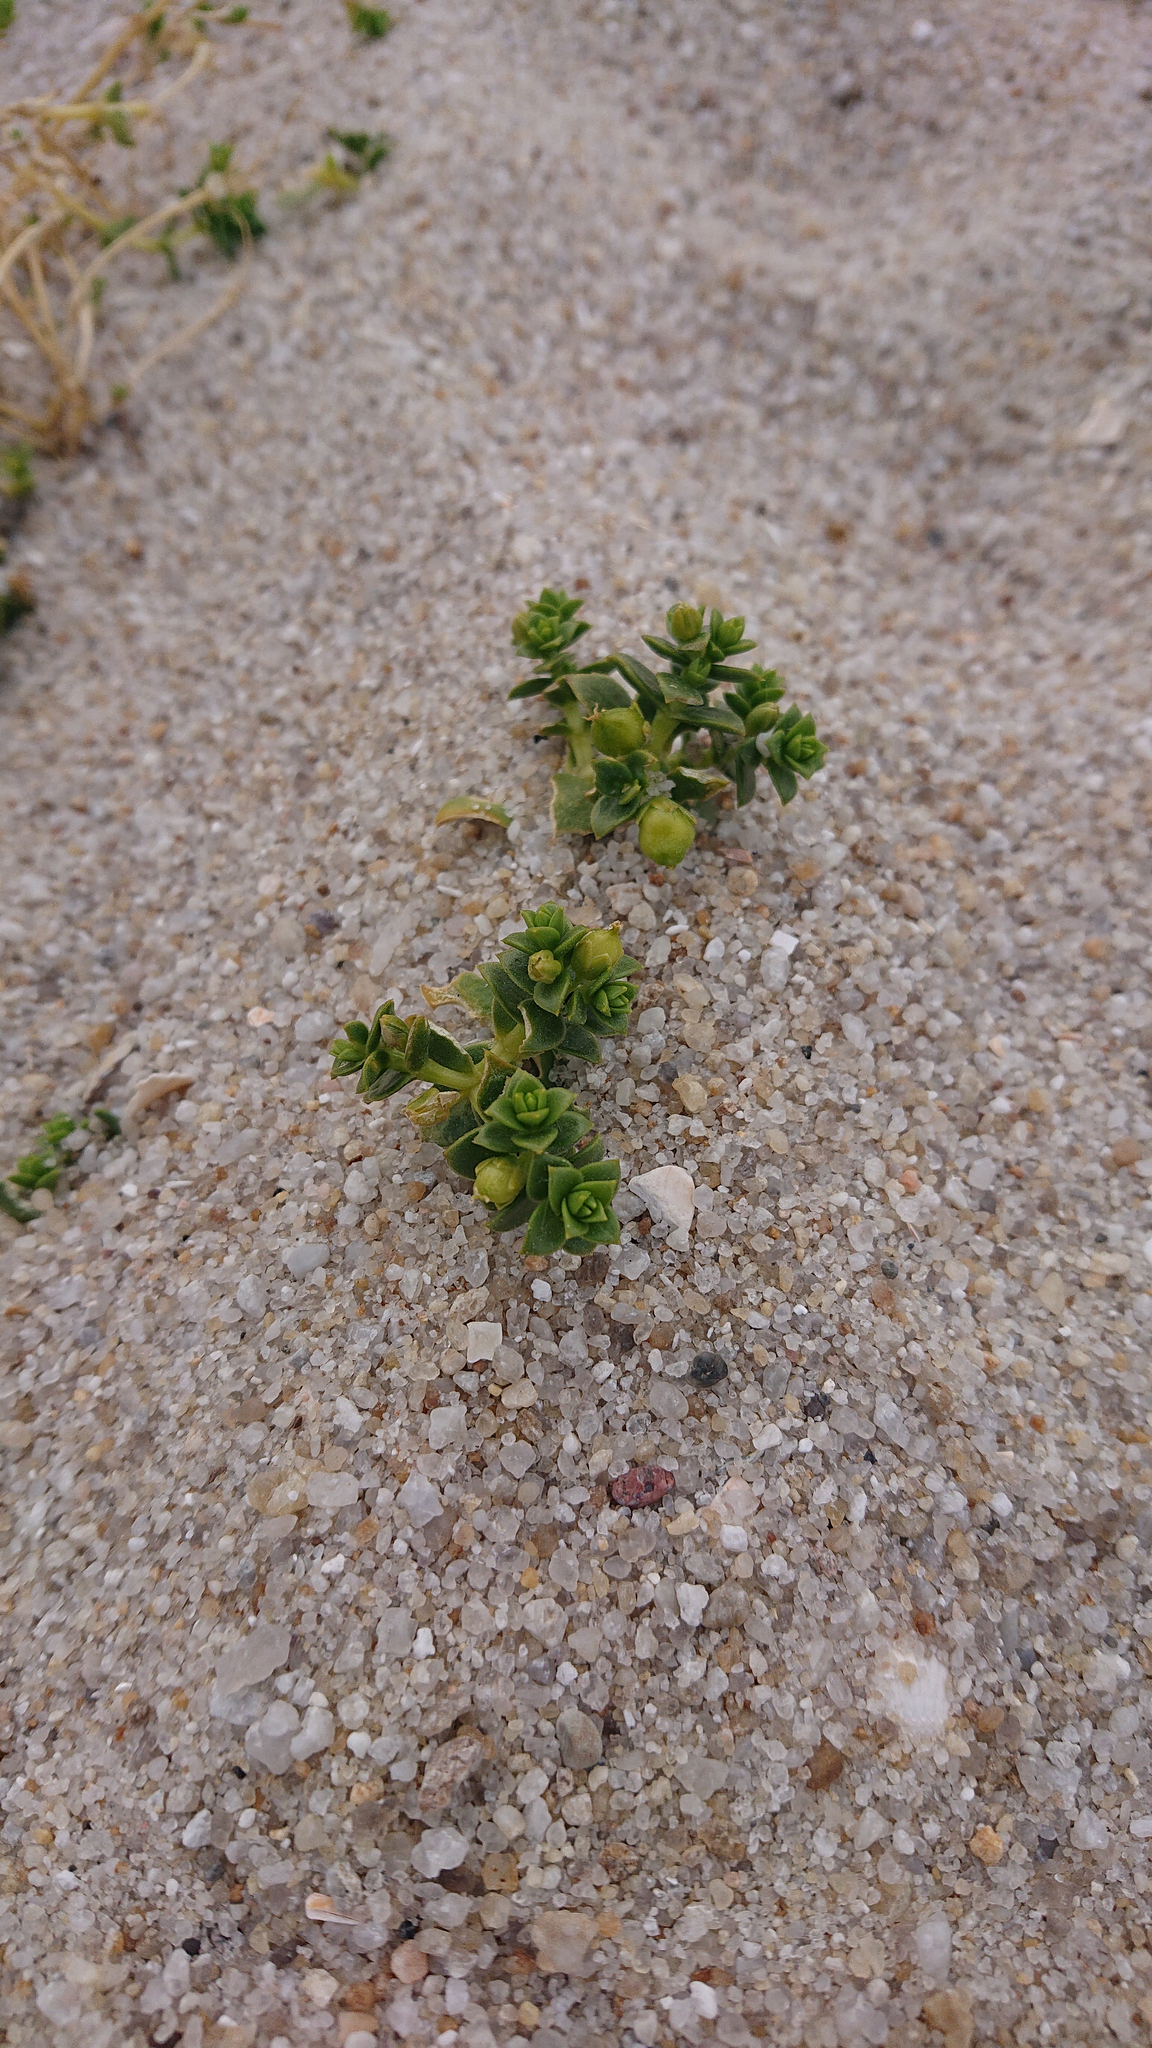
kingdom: Plantae
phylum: Tracheophyta
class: Magnoliopsida
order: Caryophyllales
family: Caryophyllaceae
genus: Honckenya
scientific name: Honckenya peploides
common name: Sea sandwort
